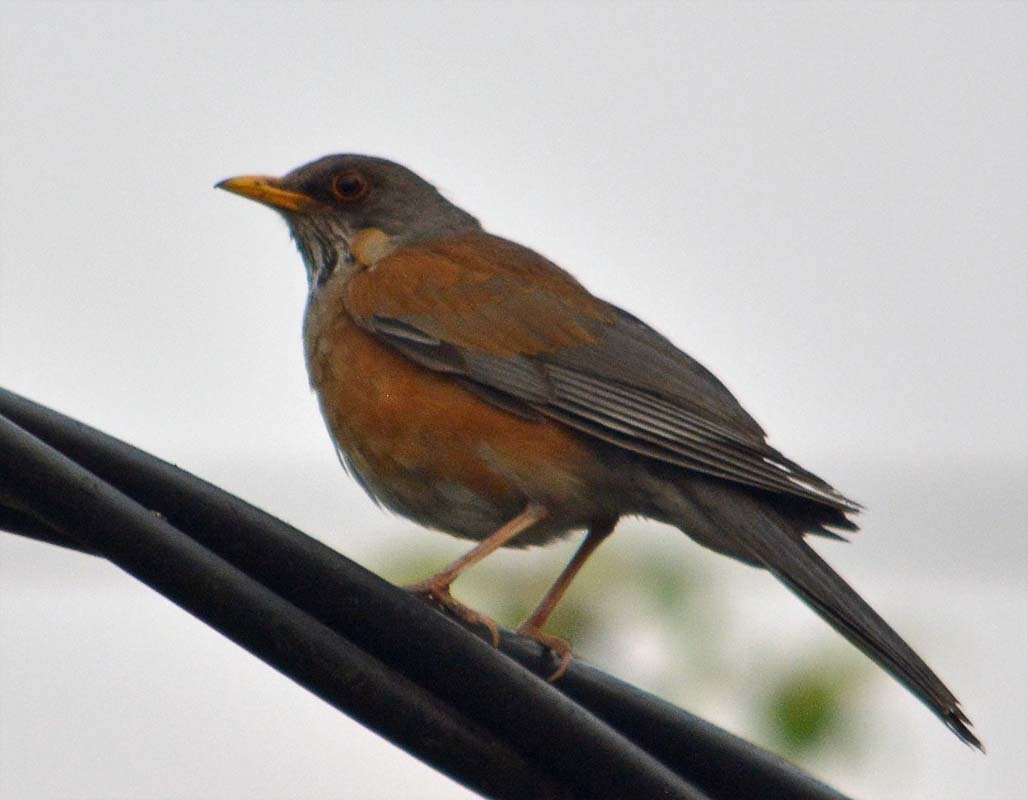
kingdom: Animalia
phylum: Chordata
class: Aves
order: Passeriformes
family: Turdidae
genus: Turdus
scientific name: Turdus rufopalliatus
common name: Rufous-backed robin
